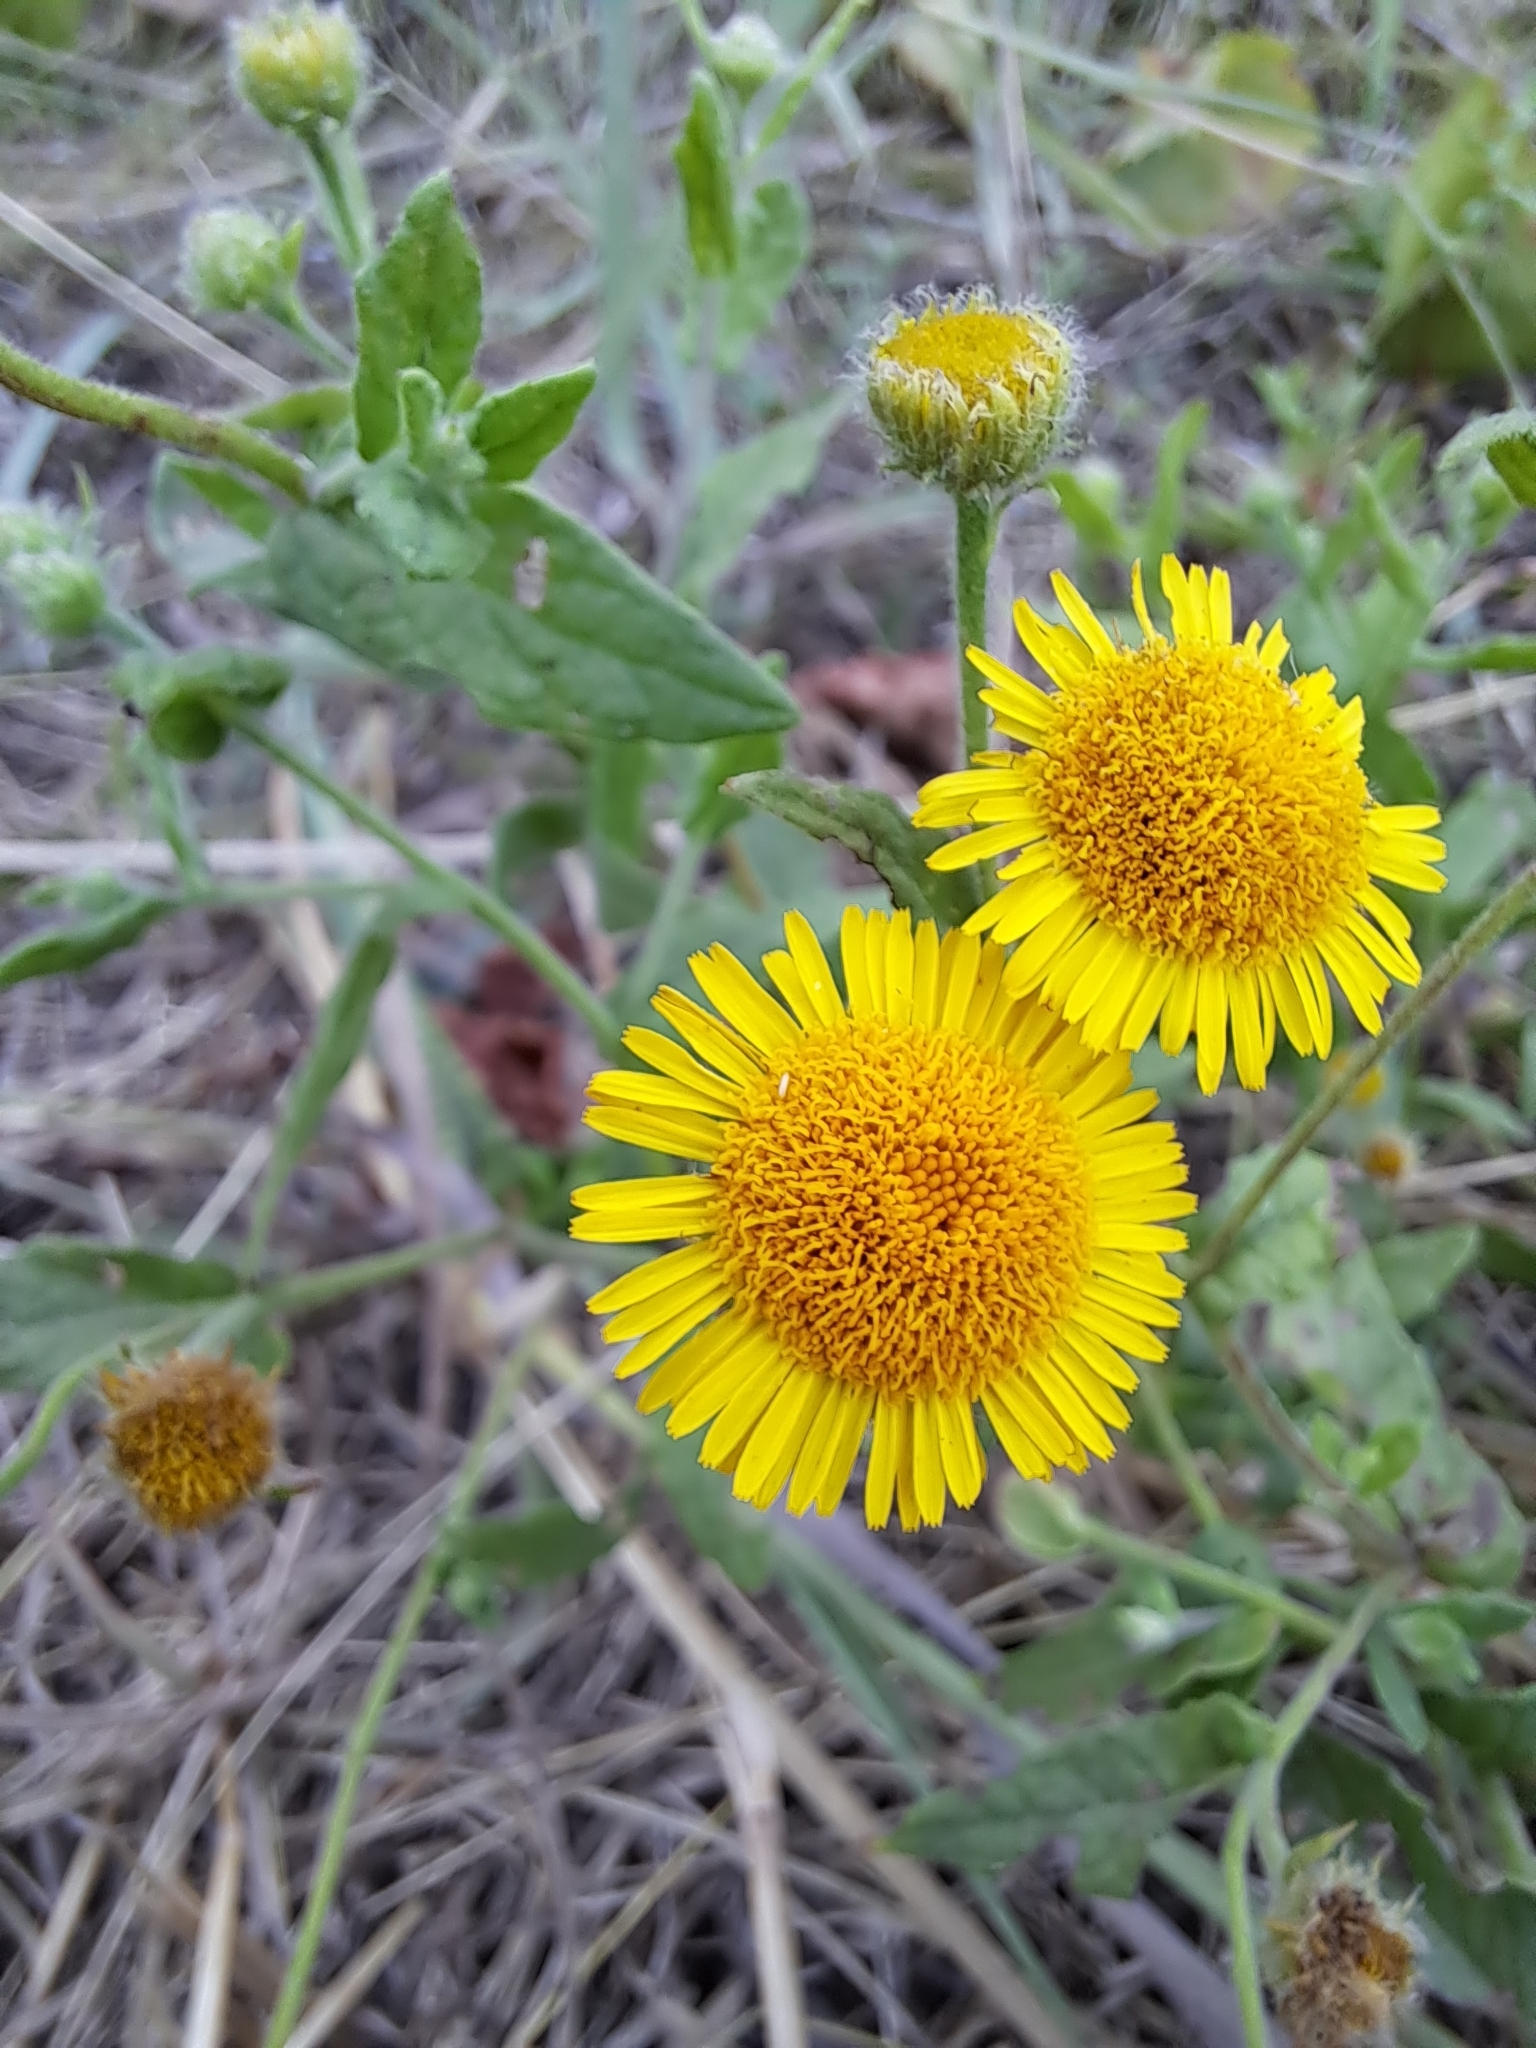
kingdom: Plantae
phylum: Tracheophyta
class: Magnoliopsida
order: Asterales
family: Asteraceae
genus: Pulicaria
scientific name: Pulicaria dysenterica
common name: Common fleabane
